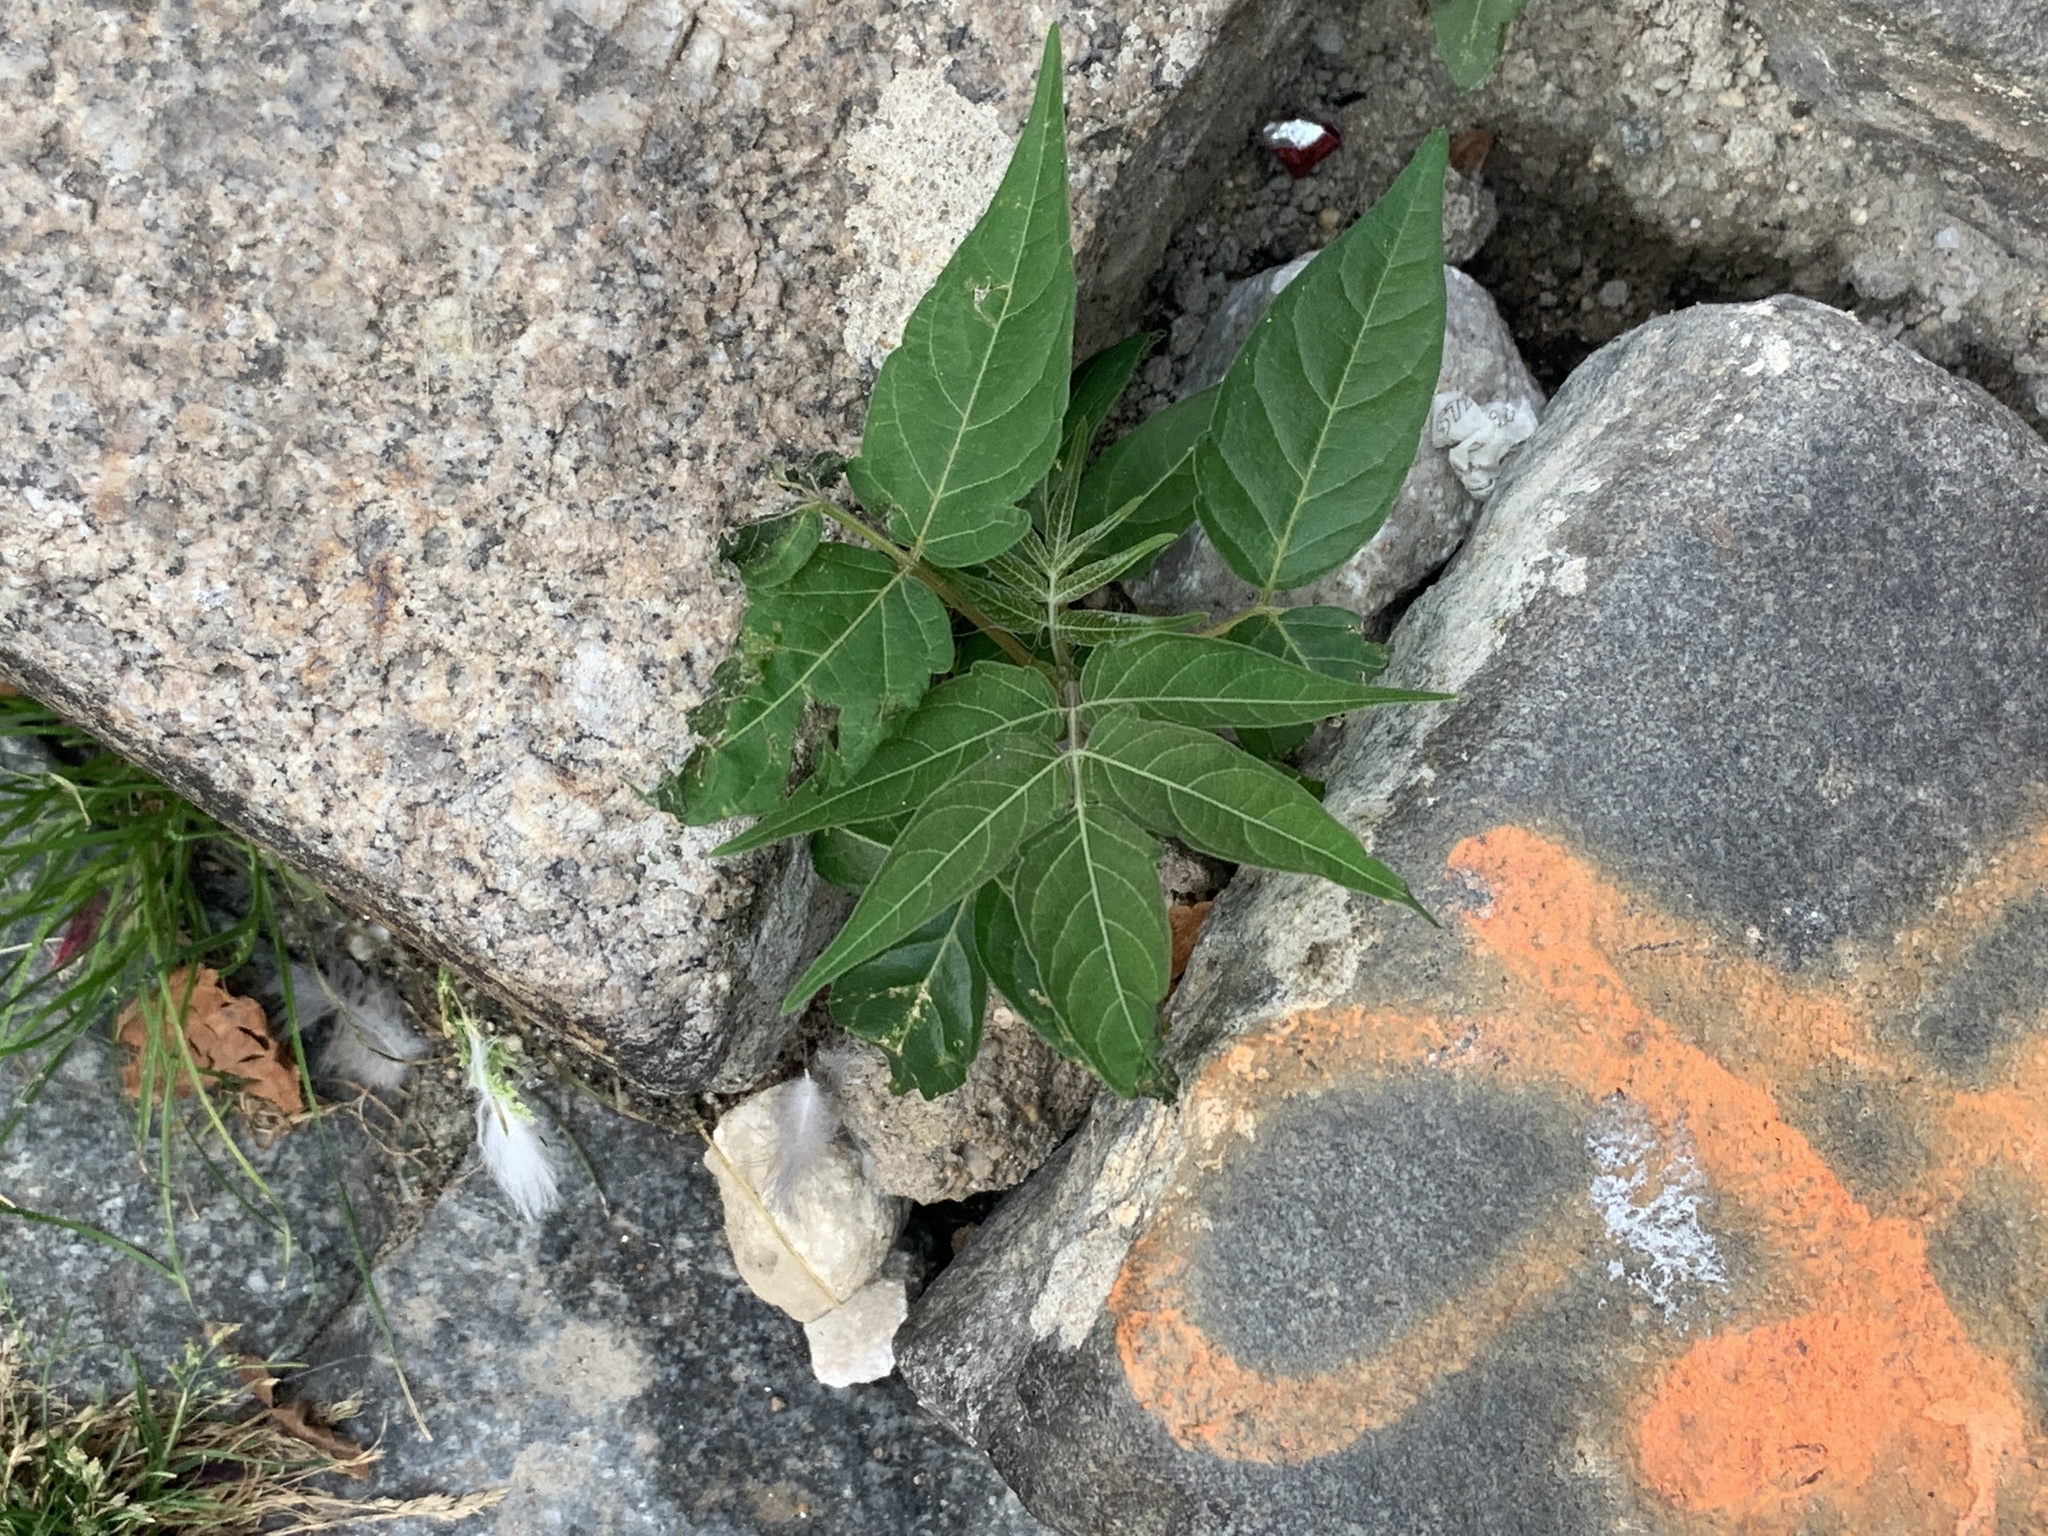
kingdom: Plantae
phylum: Tracheophyta
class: Magnoliopsida
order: Sapindales
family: Simaroubaceae
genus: Ailanthus
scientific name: Ailanthus altissima
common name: Tree-of-heaven
